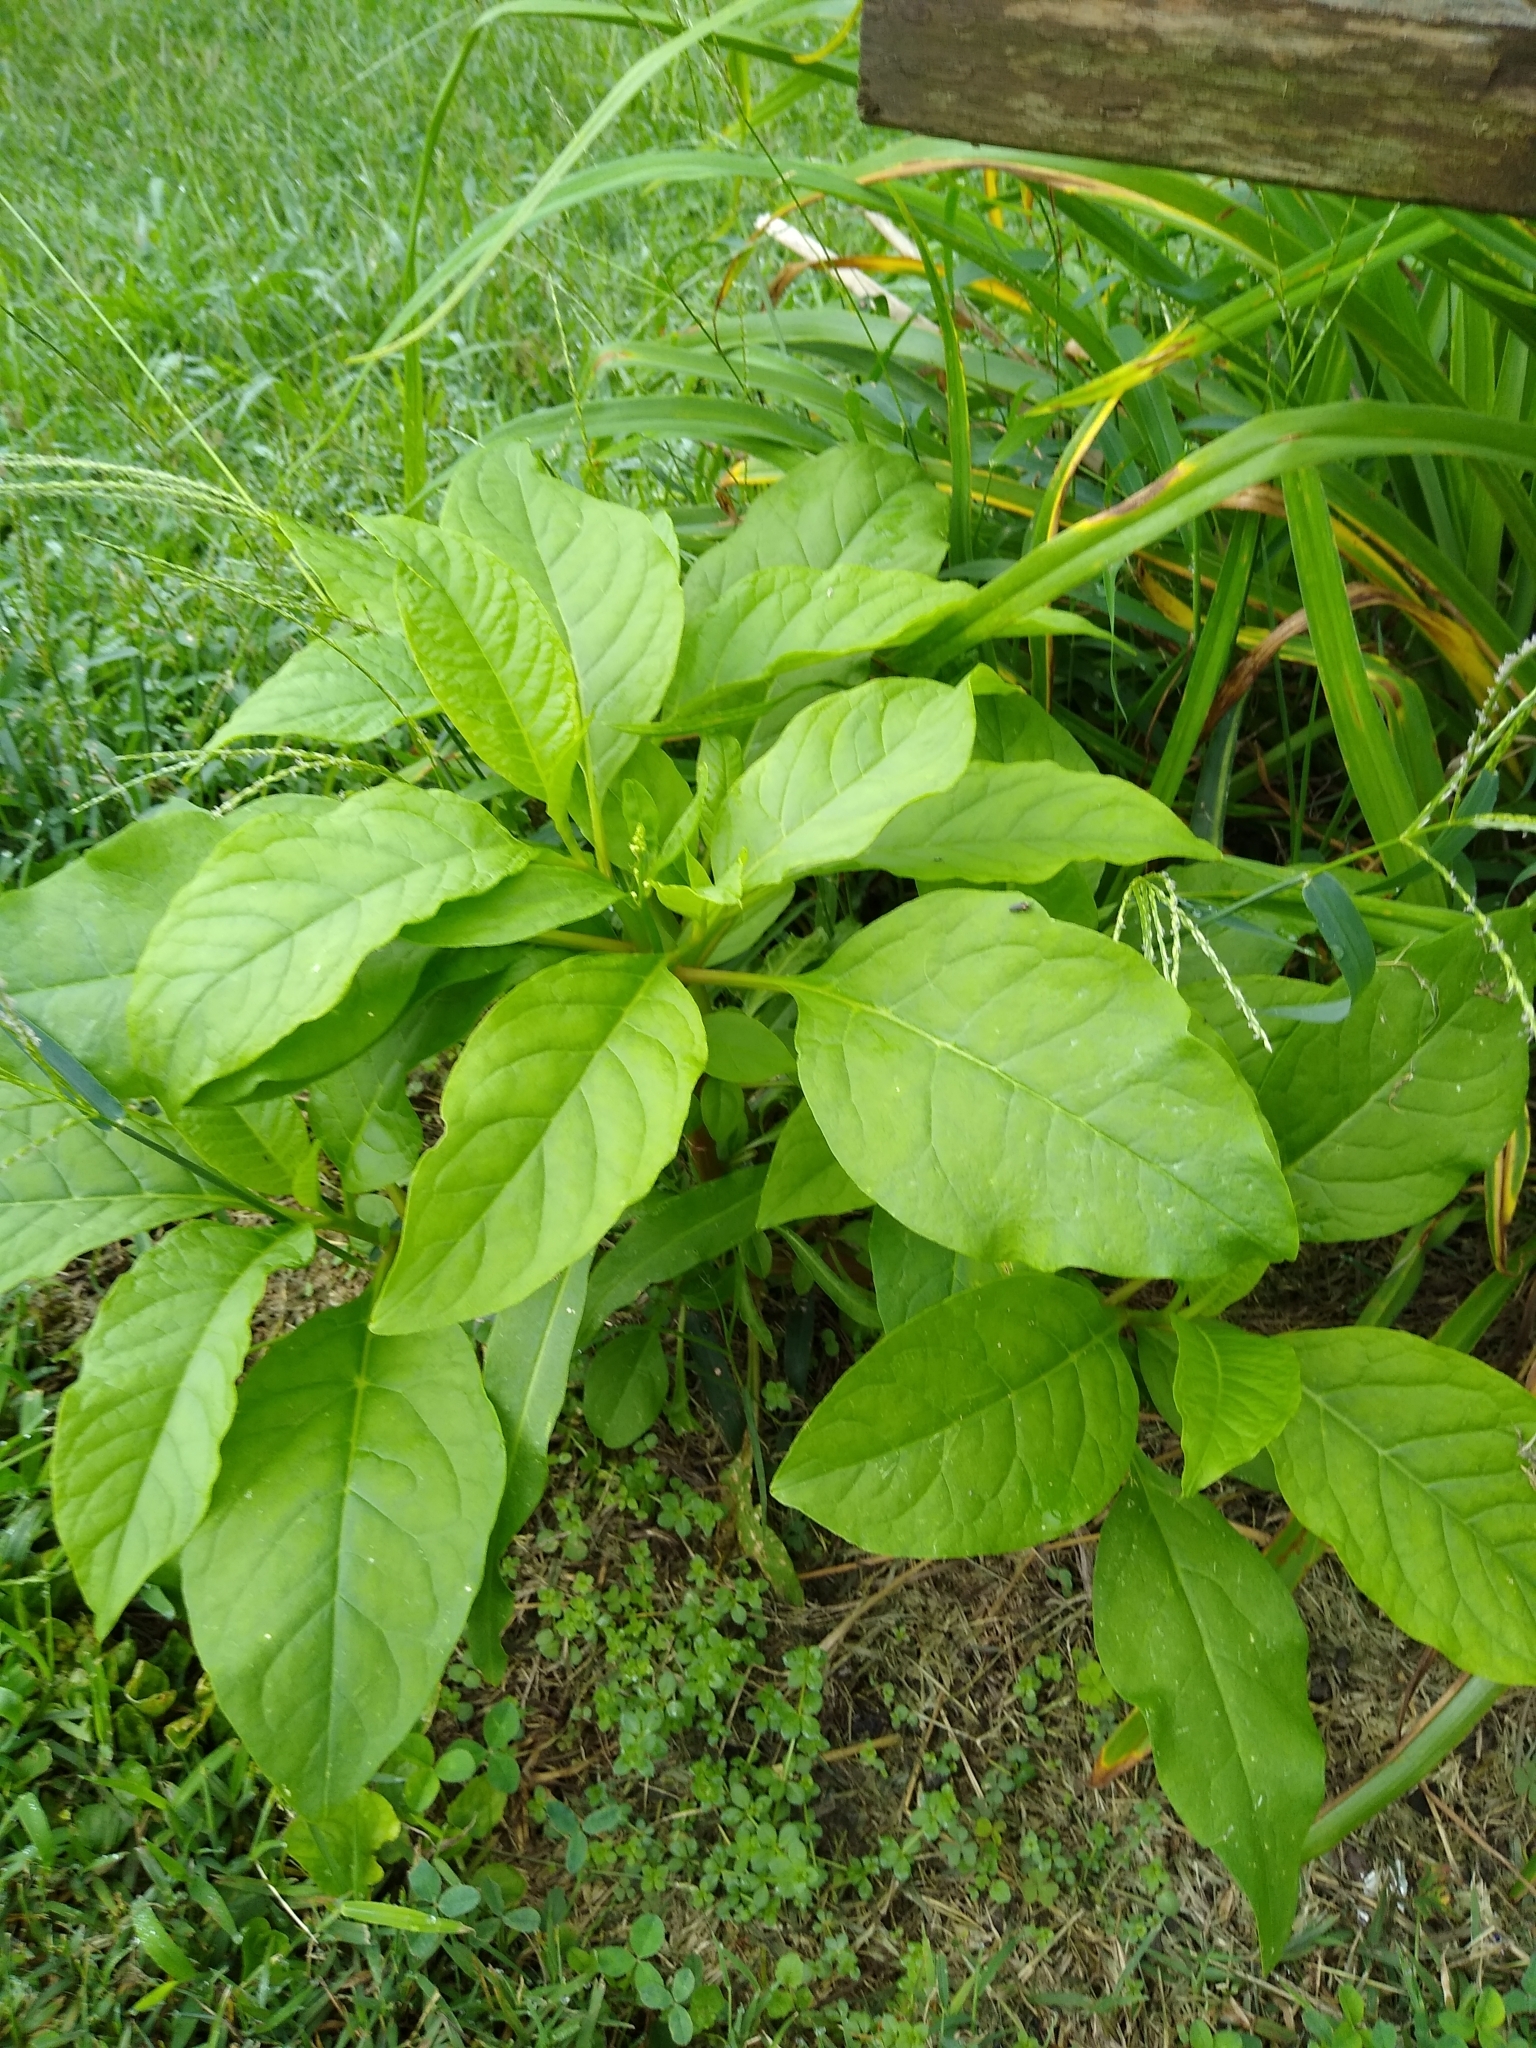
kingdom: Plantae
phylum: Tracheophyta
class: Magnoliopsida
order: Caryophyllales
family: Phytolaccaceae
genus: Phytolacca
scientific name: Phytolacca americana
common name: American pokeweed
